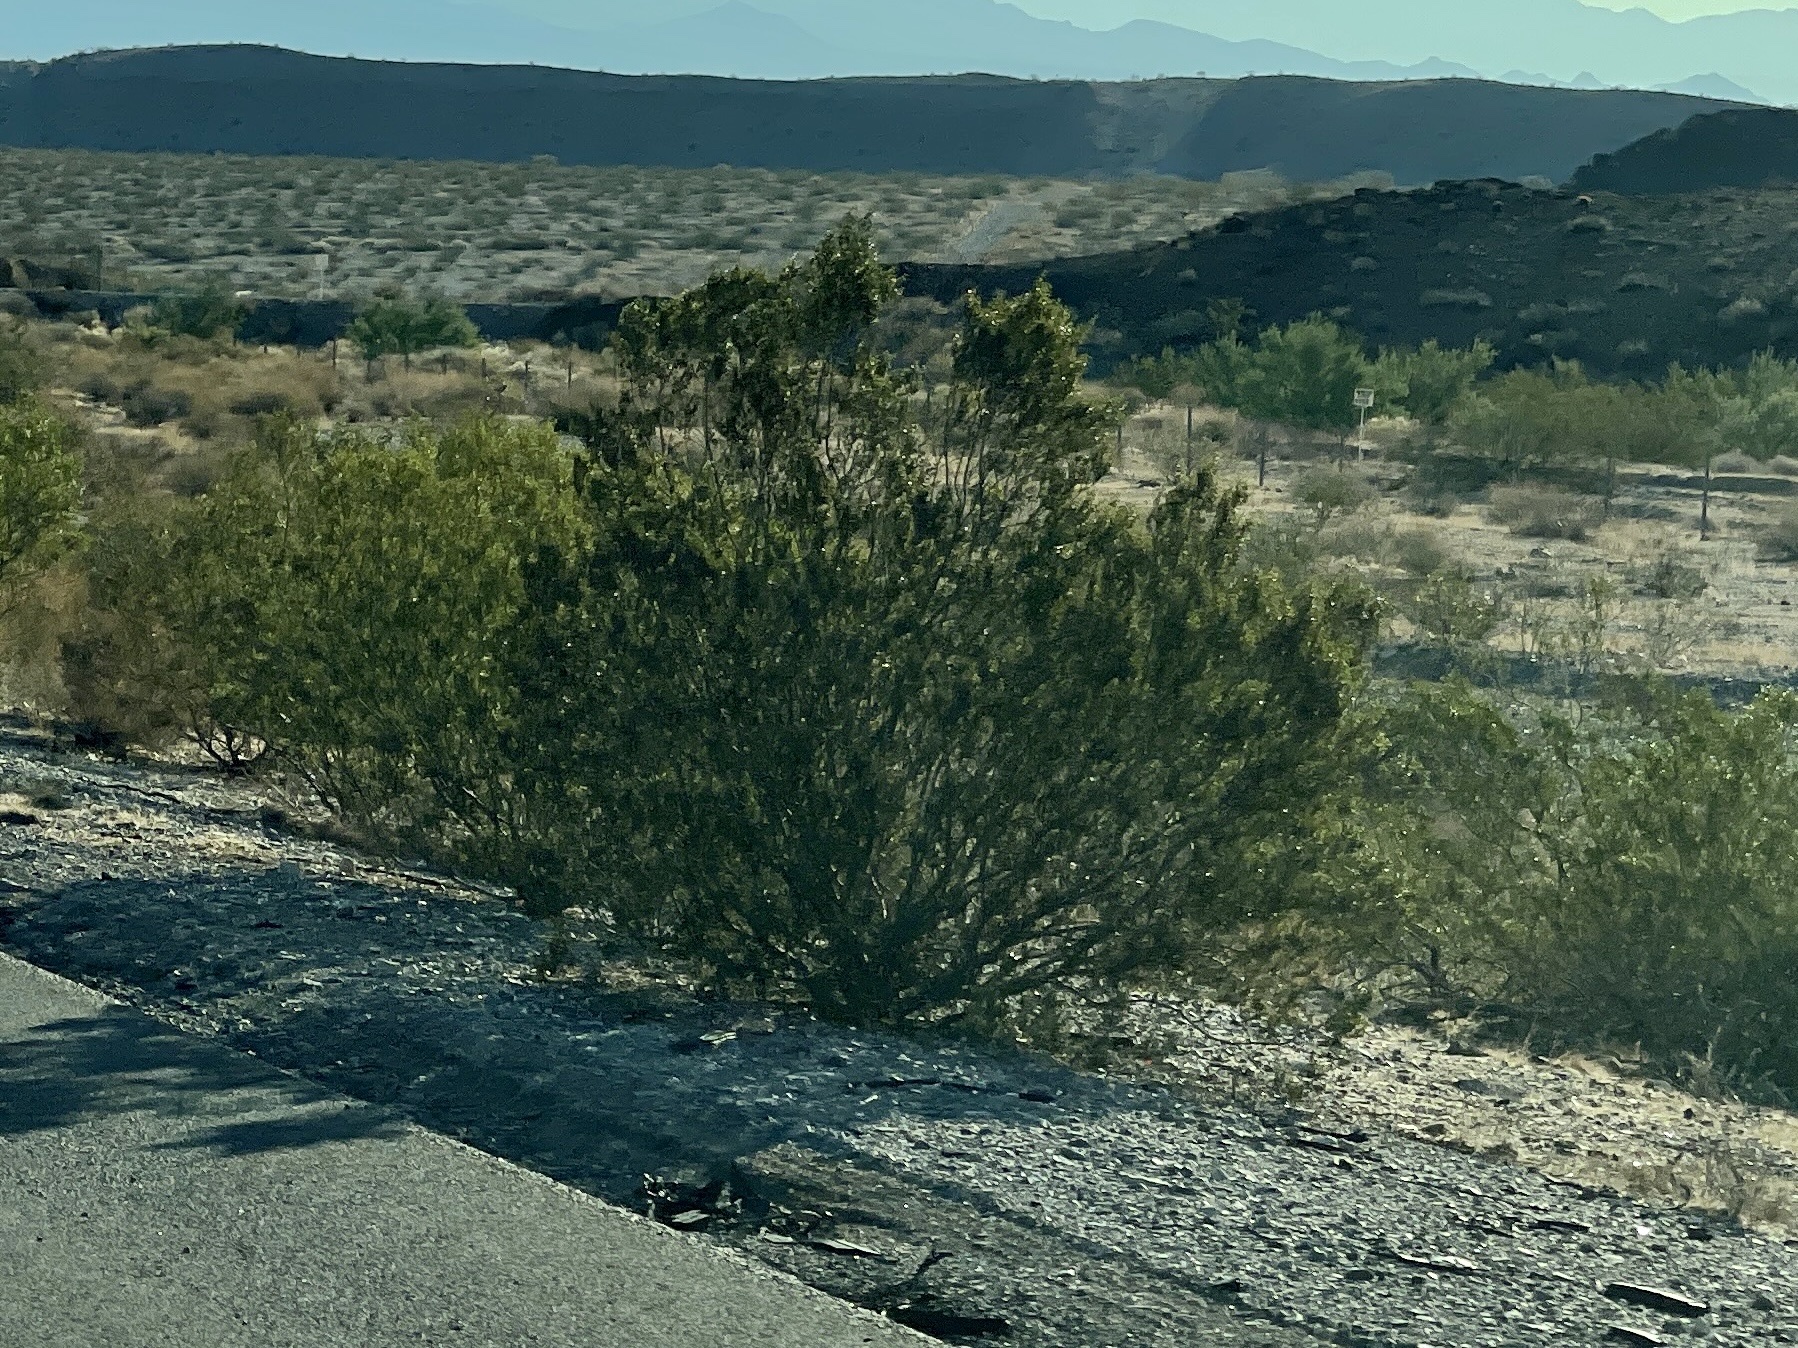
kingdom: Plantae
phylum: Tracheophyta
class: Magnoliopsida
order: Zygophyllales
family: Zygophyllaceae
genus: Larrea
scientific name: Larrea tridentata
